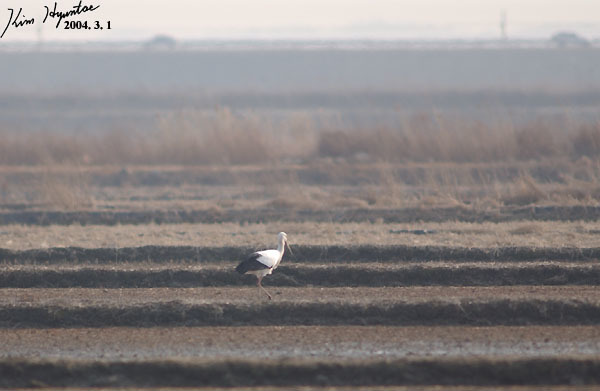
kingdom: Animalia
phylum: Chordata
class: Aves
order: Ciconiiformes
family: Ciconiidae
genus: Ciconia
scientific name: Ciconia boyciana
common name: Oriental stork
